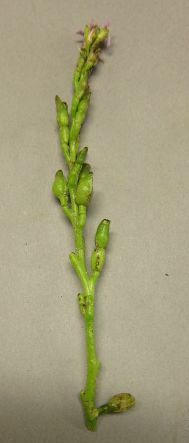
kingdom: Plantae
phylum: Tracheophyta
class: Magnoliopsida
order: Brassicales
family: Brassicaceae
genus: Cakile
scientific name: Cakile edentula
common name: American sea rocket
